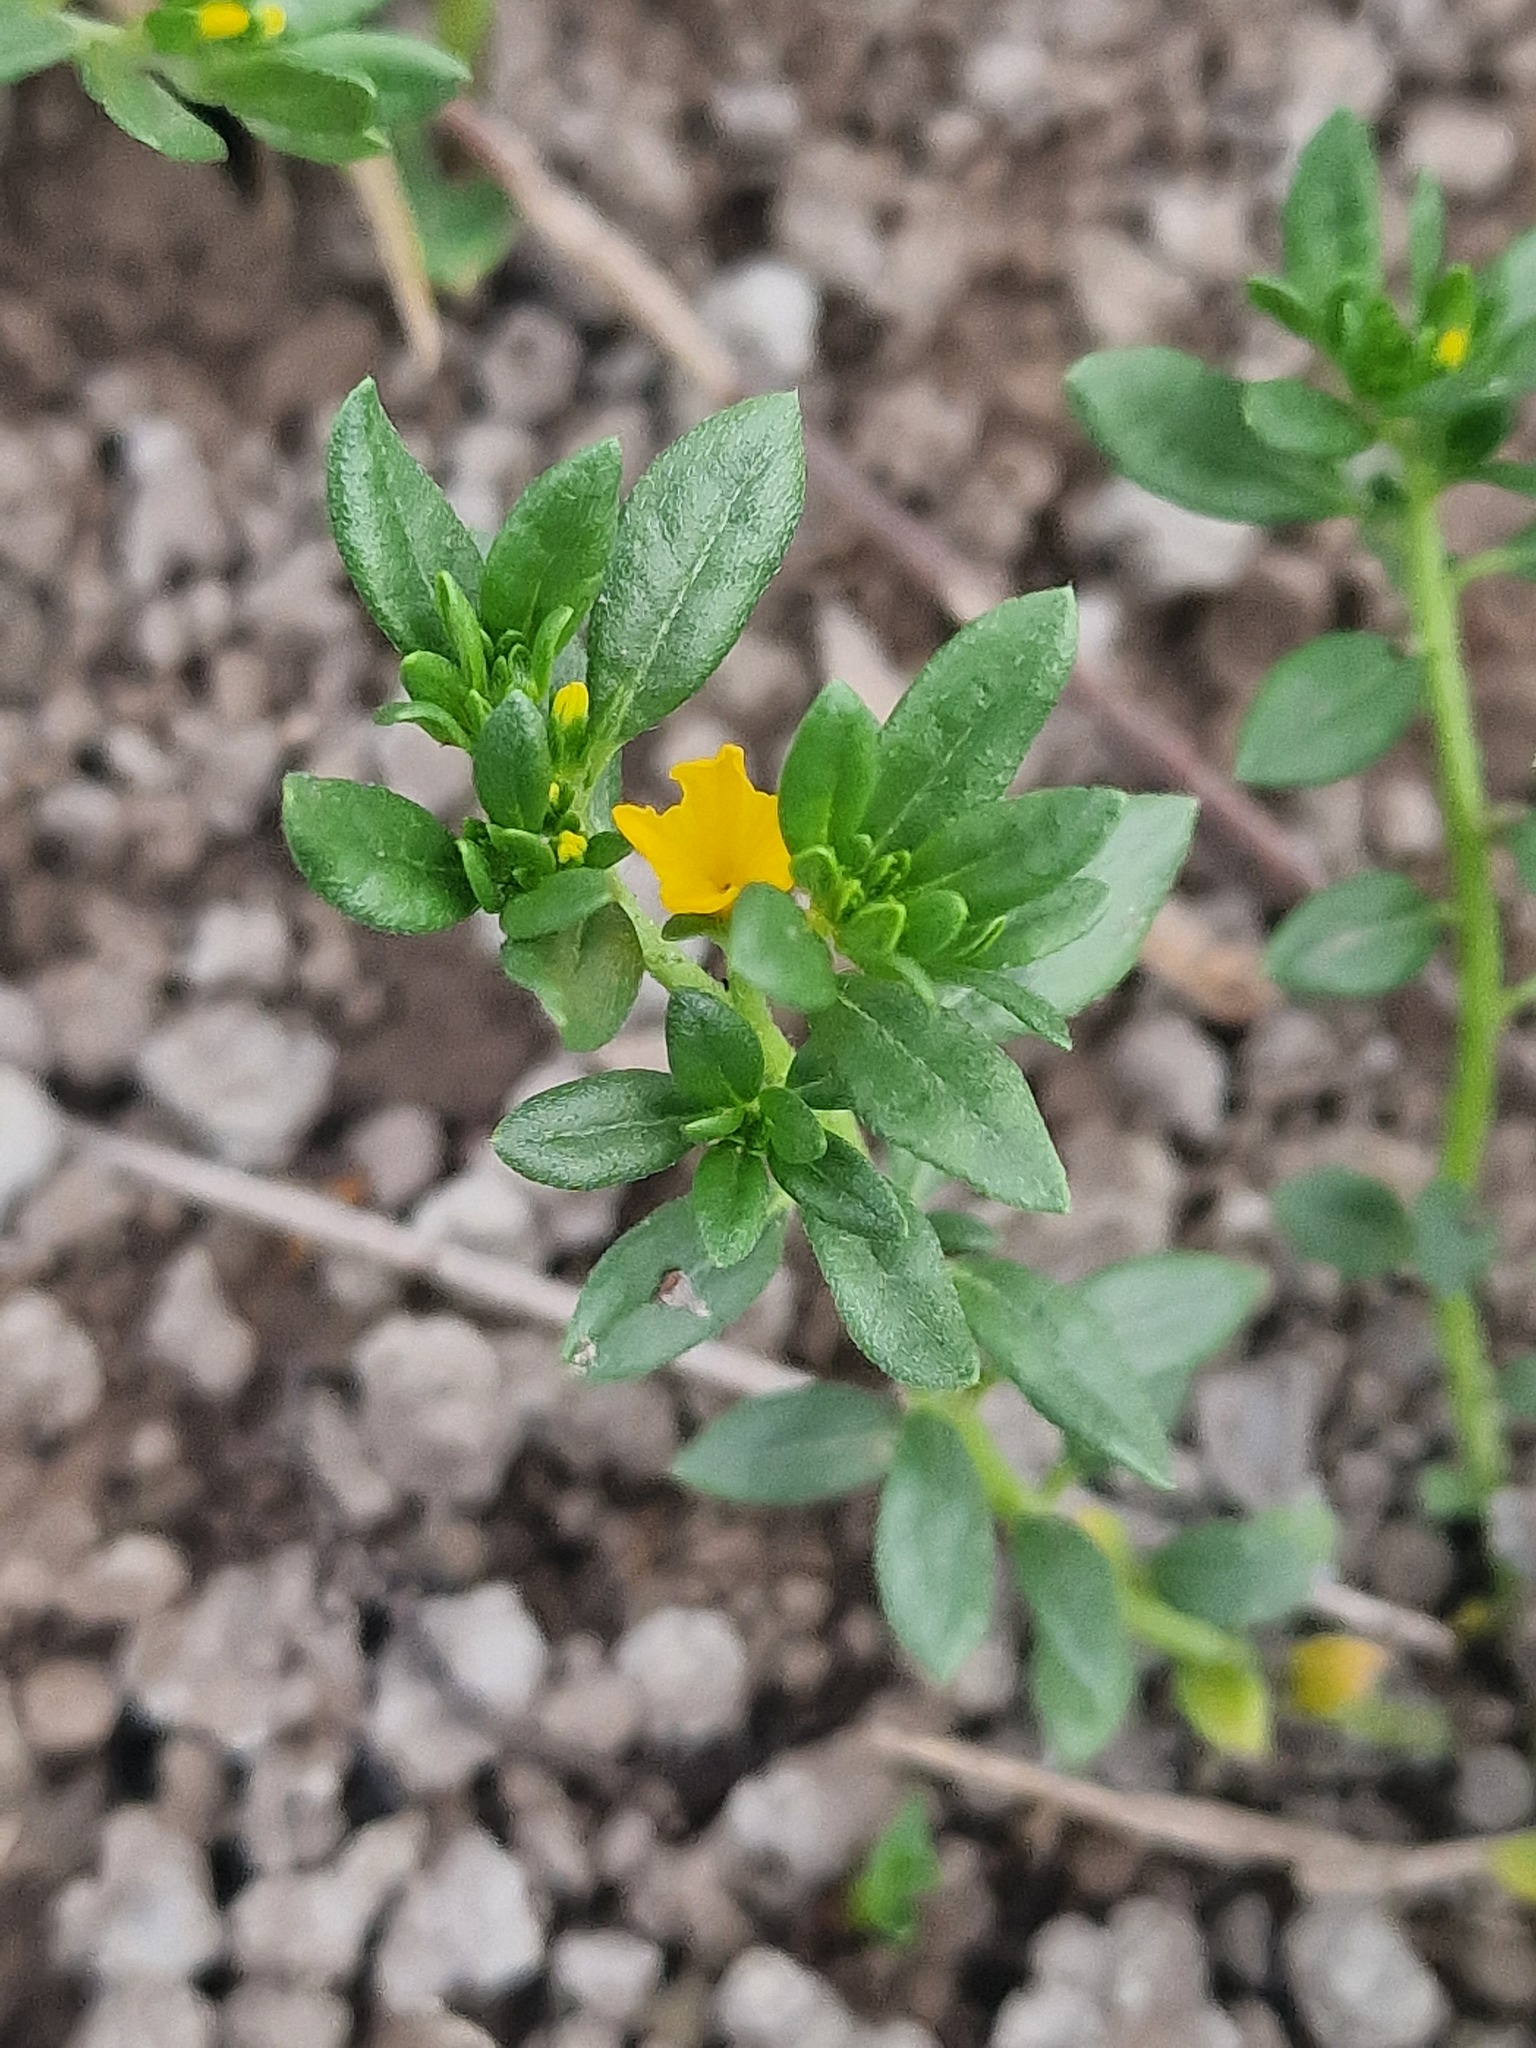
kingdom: Plantae
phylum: Tracheophyta
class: Magnoliopsida
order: Boraginales
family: Heliotropiaceae
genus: Euploca
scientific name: Euploca baclei
